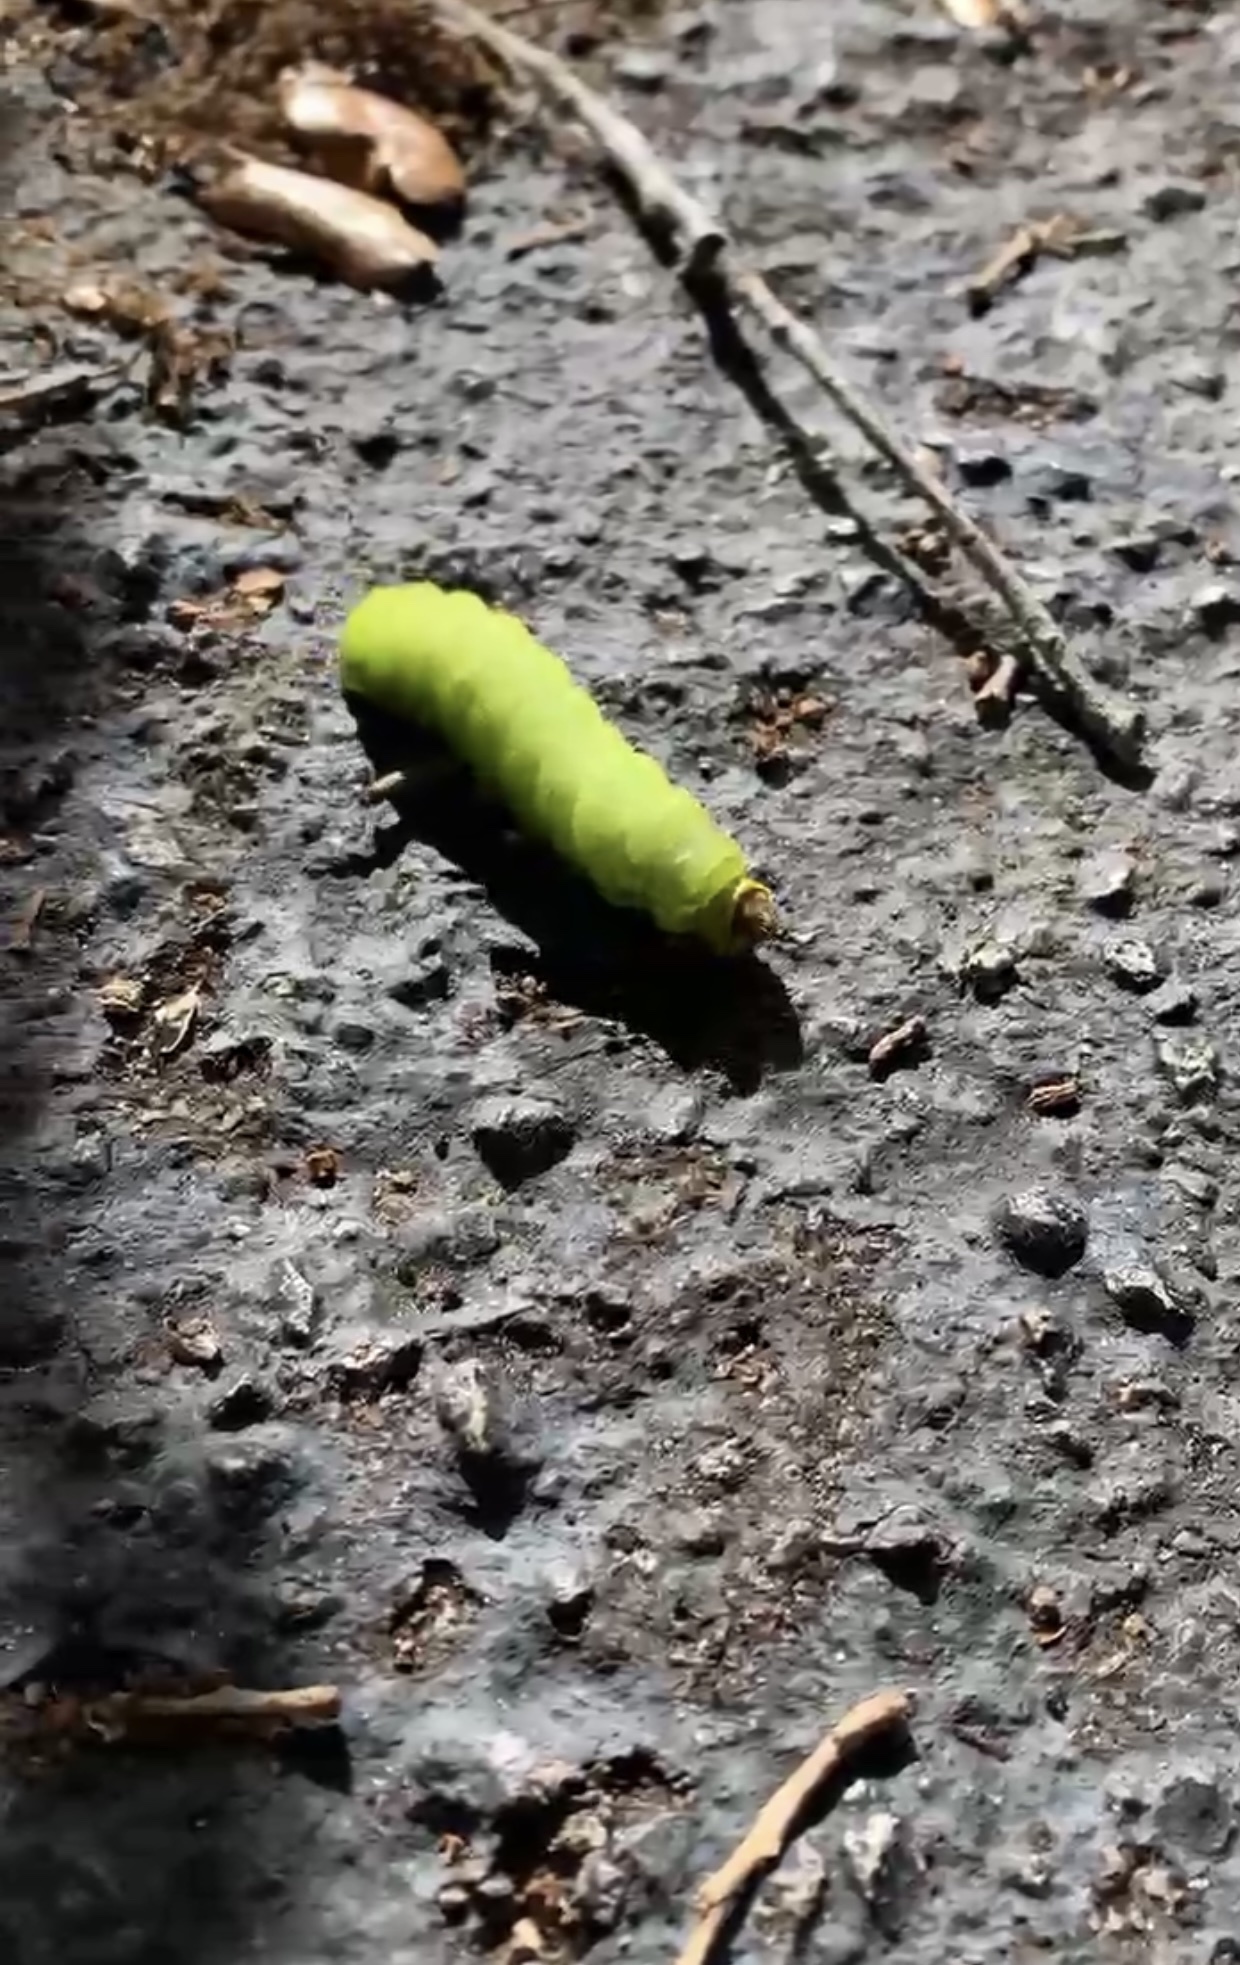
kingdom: Animalia
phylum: Arthropoda
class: Insecta
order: Lepidoptera
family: Saturniidae
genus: Antheraea
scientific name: Antheraea polyphemus
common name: Polyphemus moth
